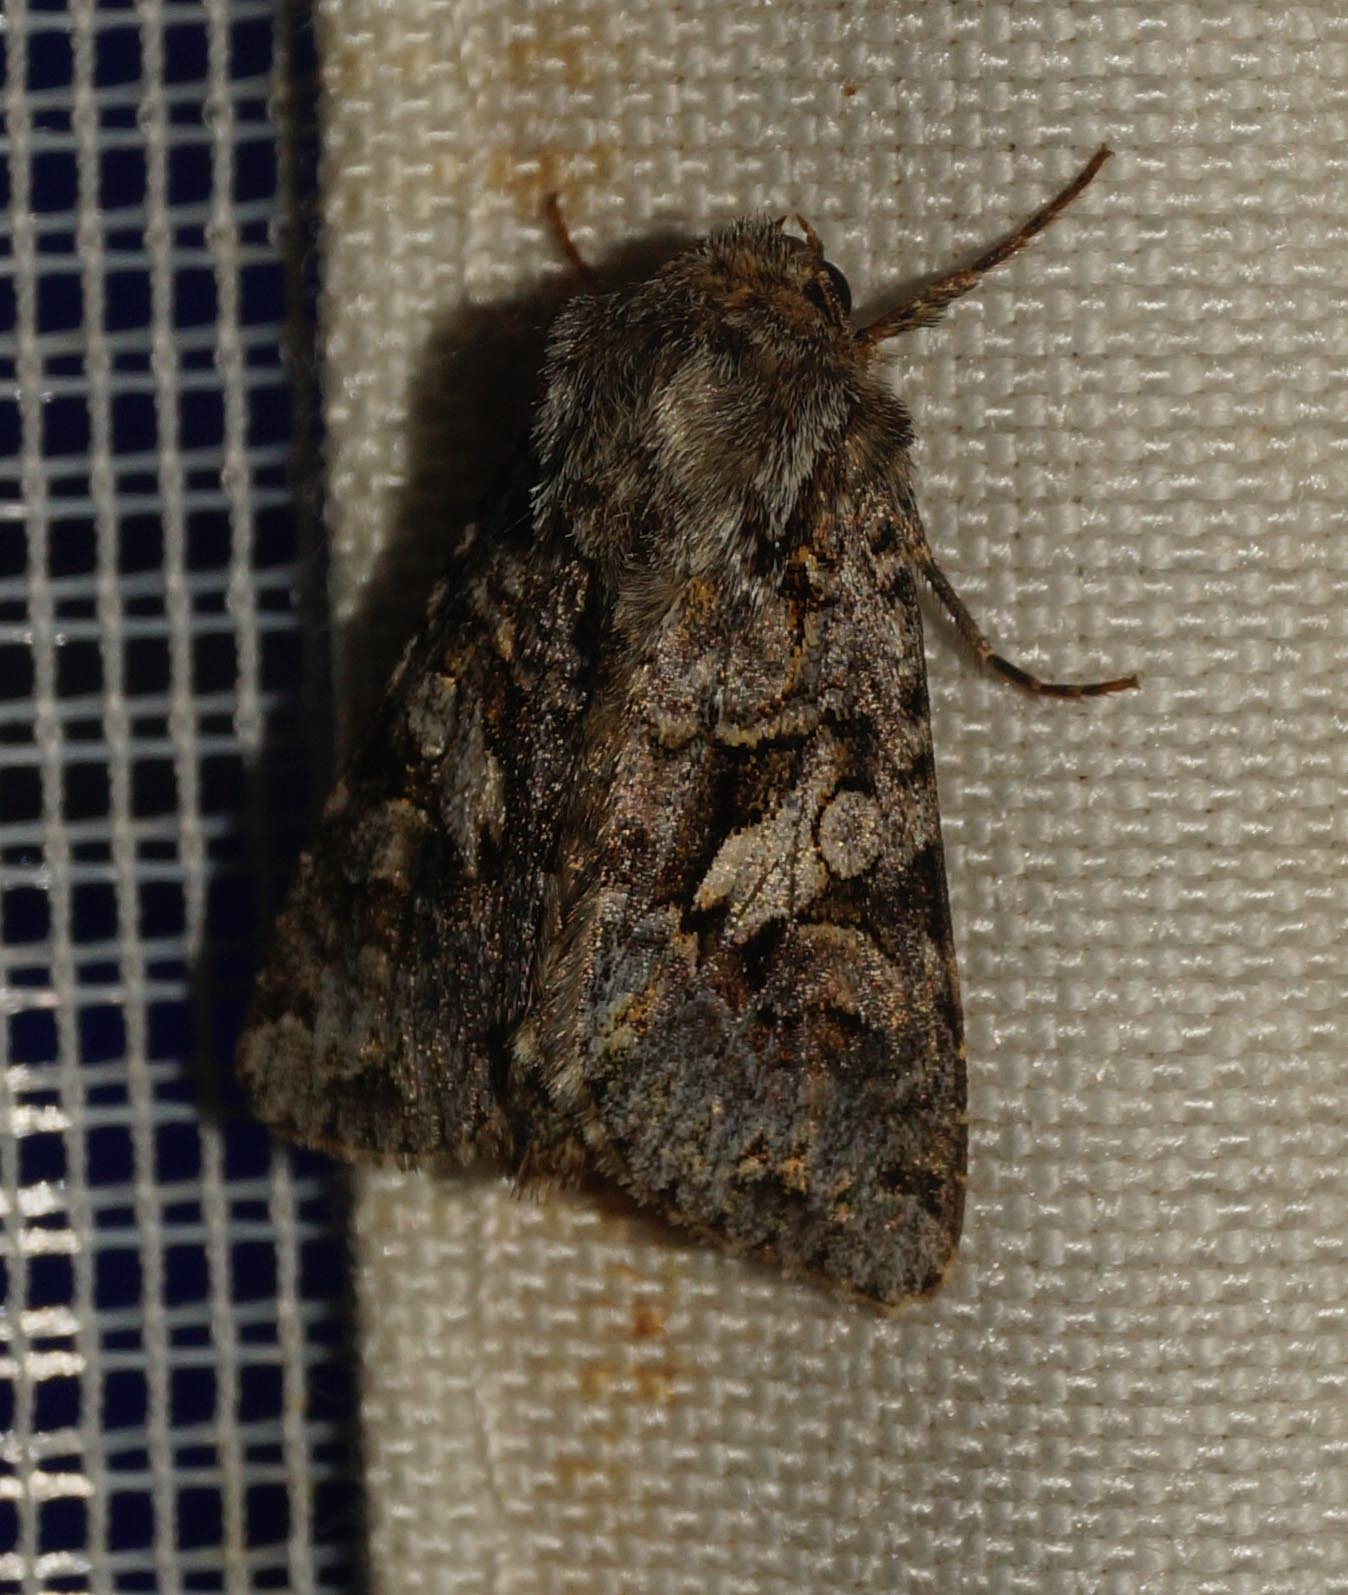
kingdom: Animalia
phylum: Arthropoda
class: Insecta
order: Lepidoptera
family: Noctuidae
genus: Hada
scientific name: Hada plebeja
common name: Shears
